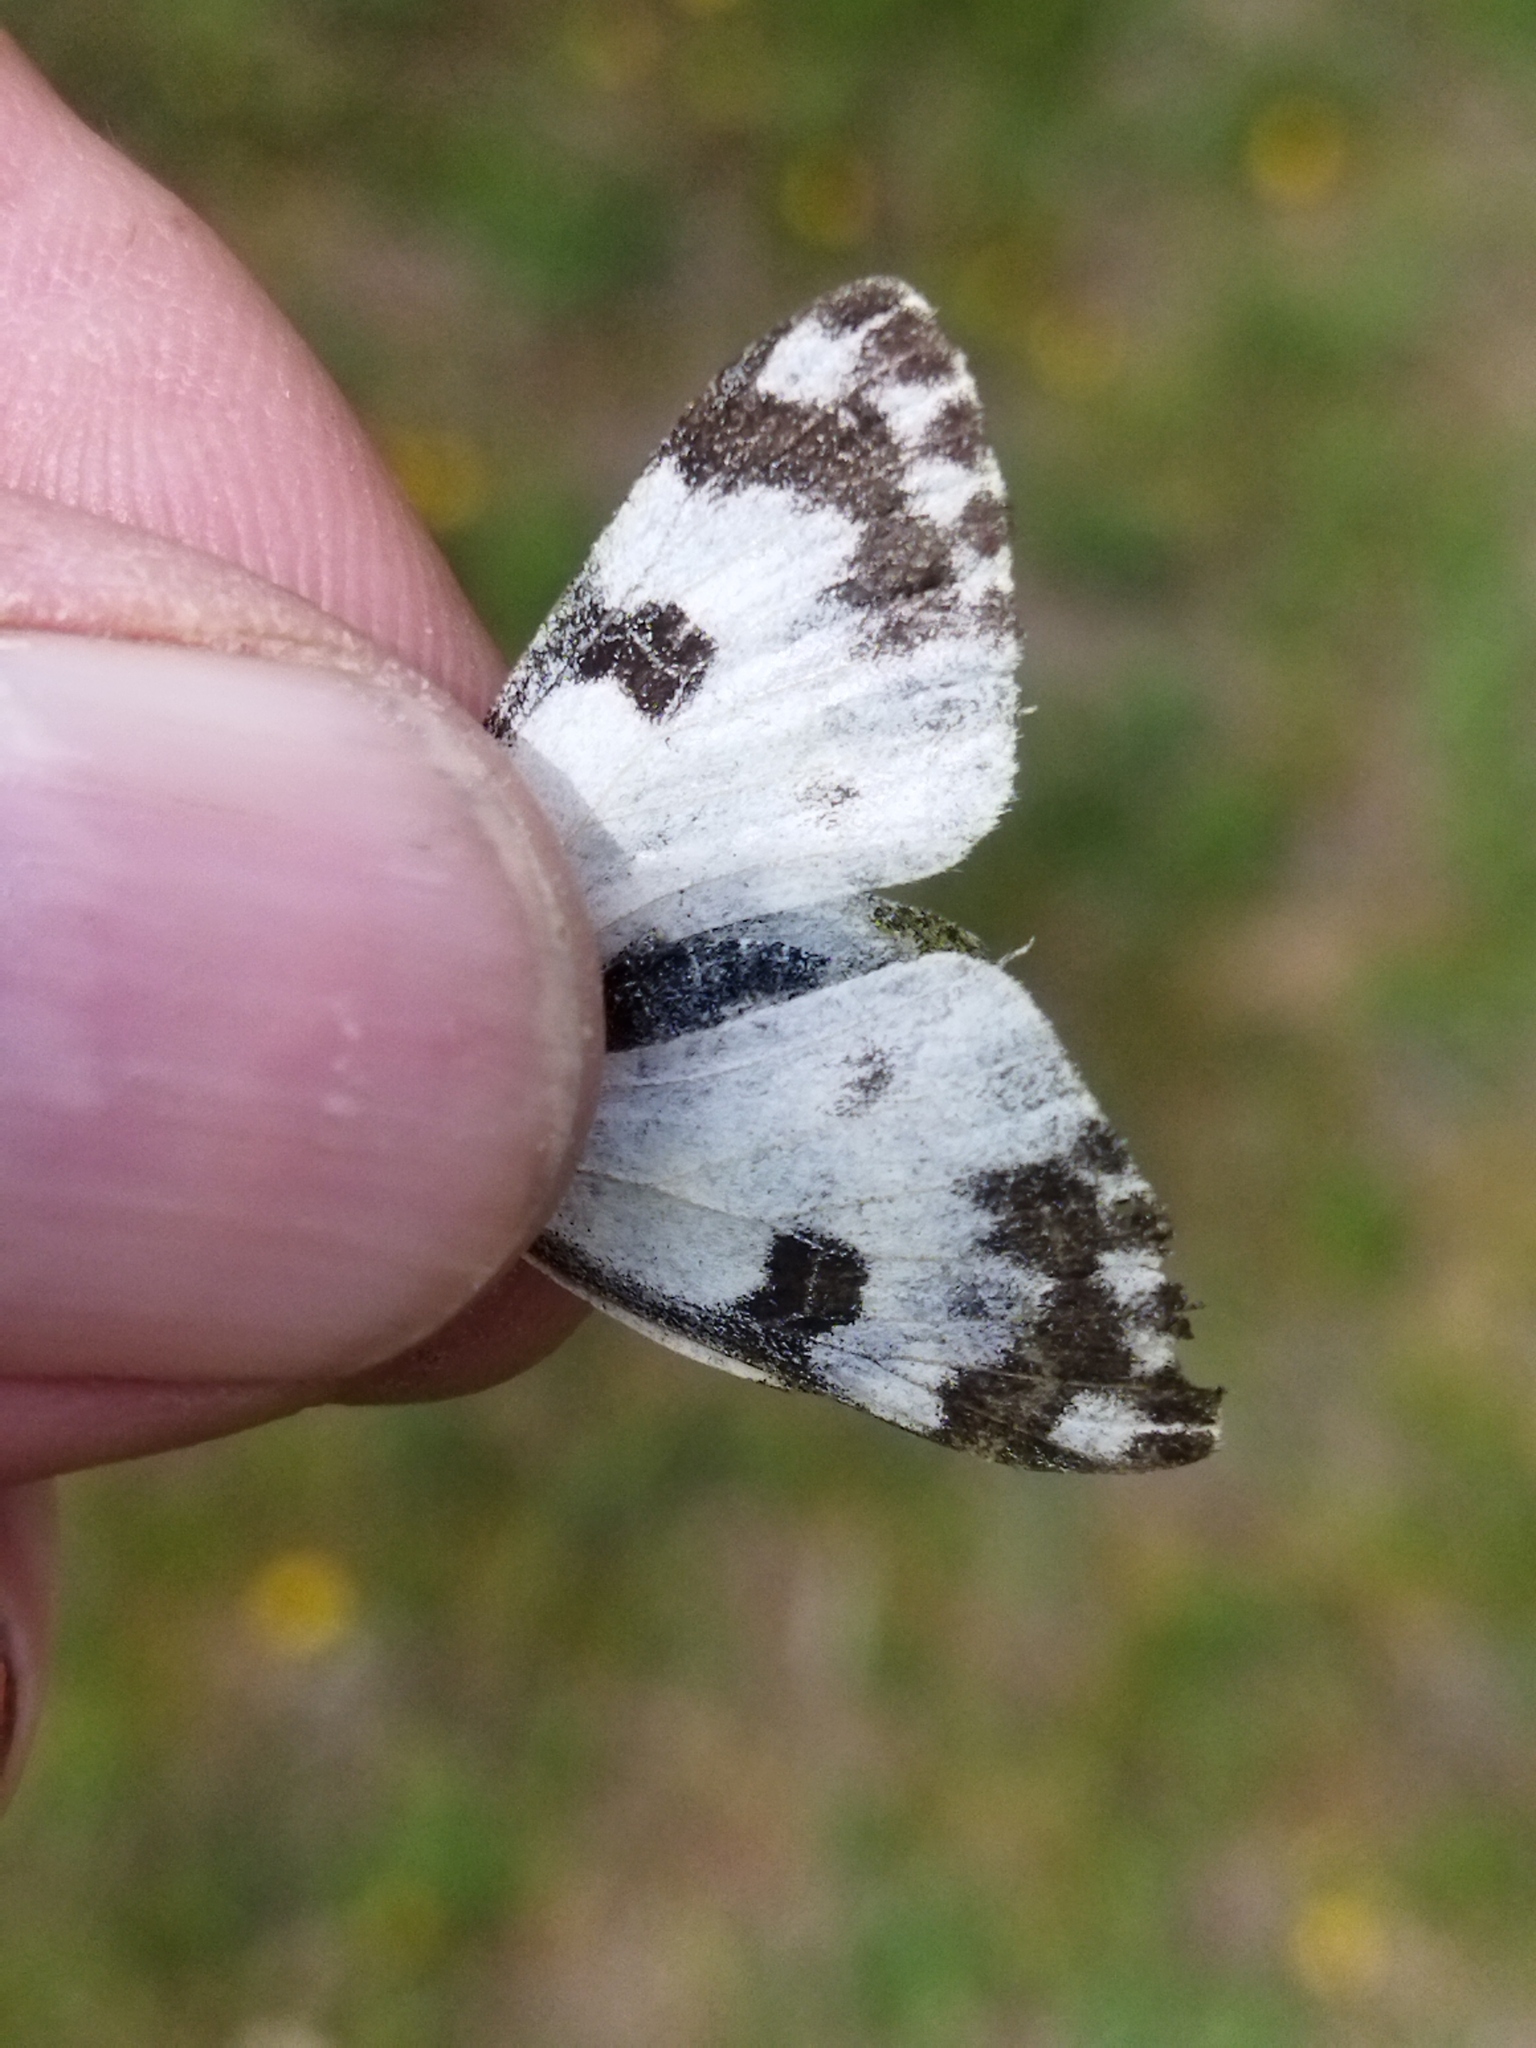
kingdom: Animalia
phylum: Arthropoda
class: Insecta
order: Lepidoptera
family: Pieridae
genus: Pontia
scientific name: Pontia edusa
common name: Eastern bath white
